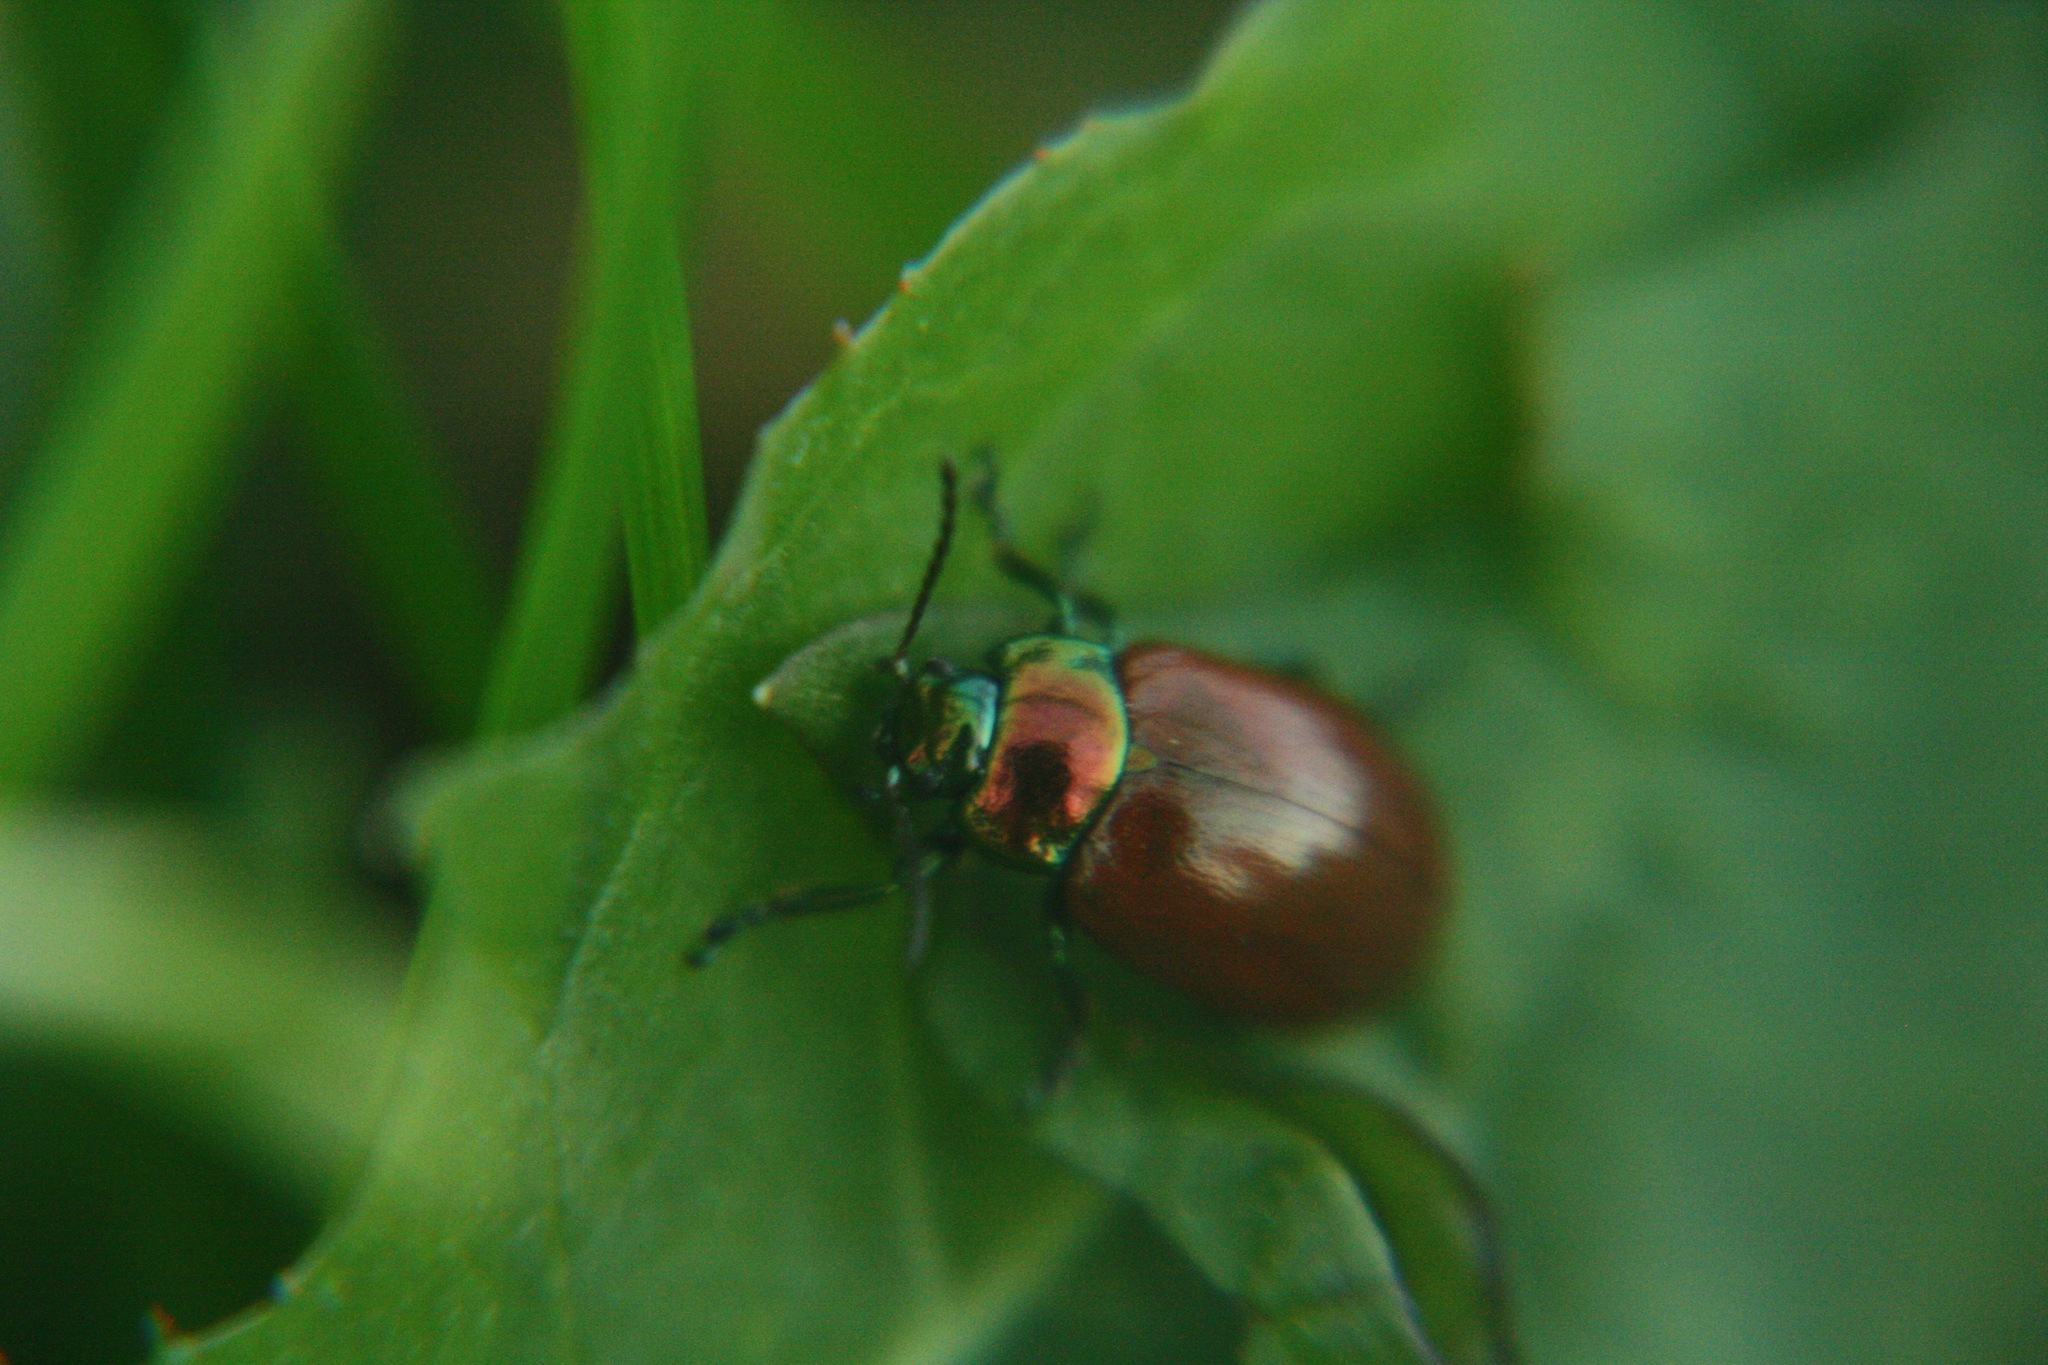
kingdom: Animalia
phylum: Arthropoda
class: Insecta
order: Coleoptera
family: Chrysomelidae
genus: Chrysomela
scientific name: Chrysomela polita
